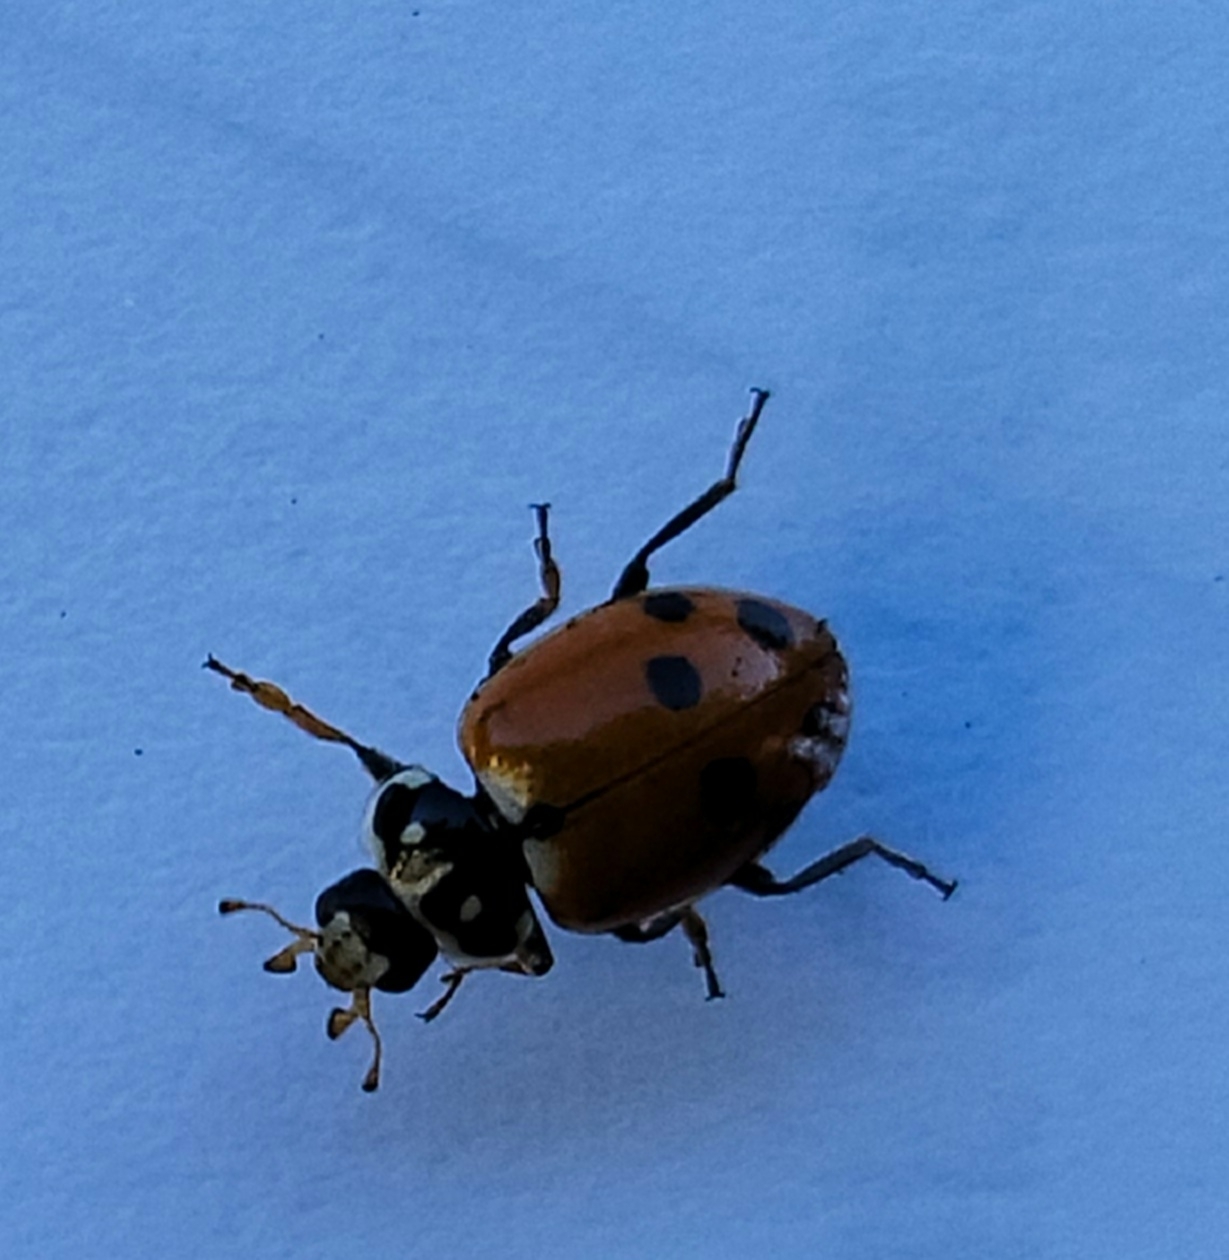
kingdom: Animalia
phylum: Arthropoda
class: Insecta
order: Coleoptera
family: Coccinellidae
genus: Hippodamia
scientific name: Hippodamia variegata
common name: Ladybird beetle
